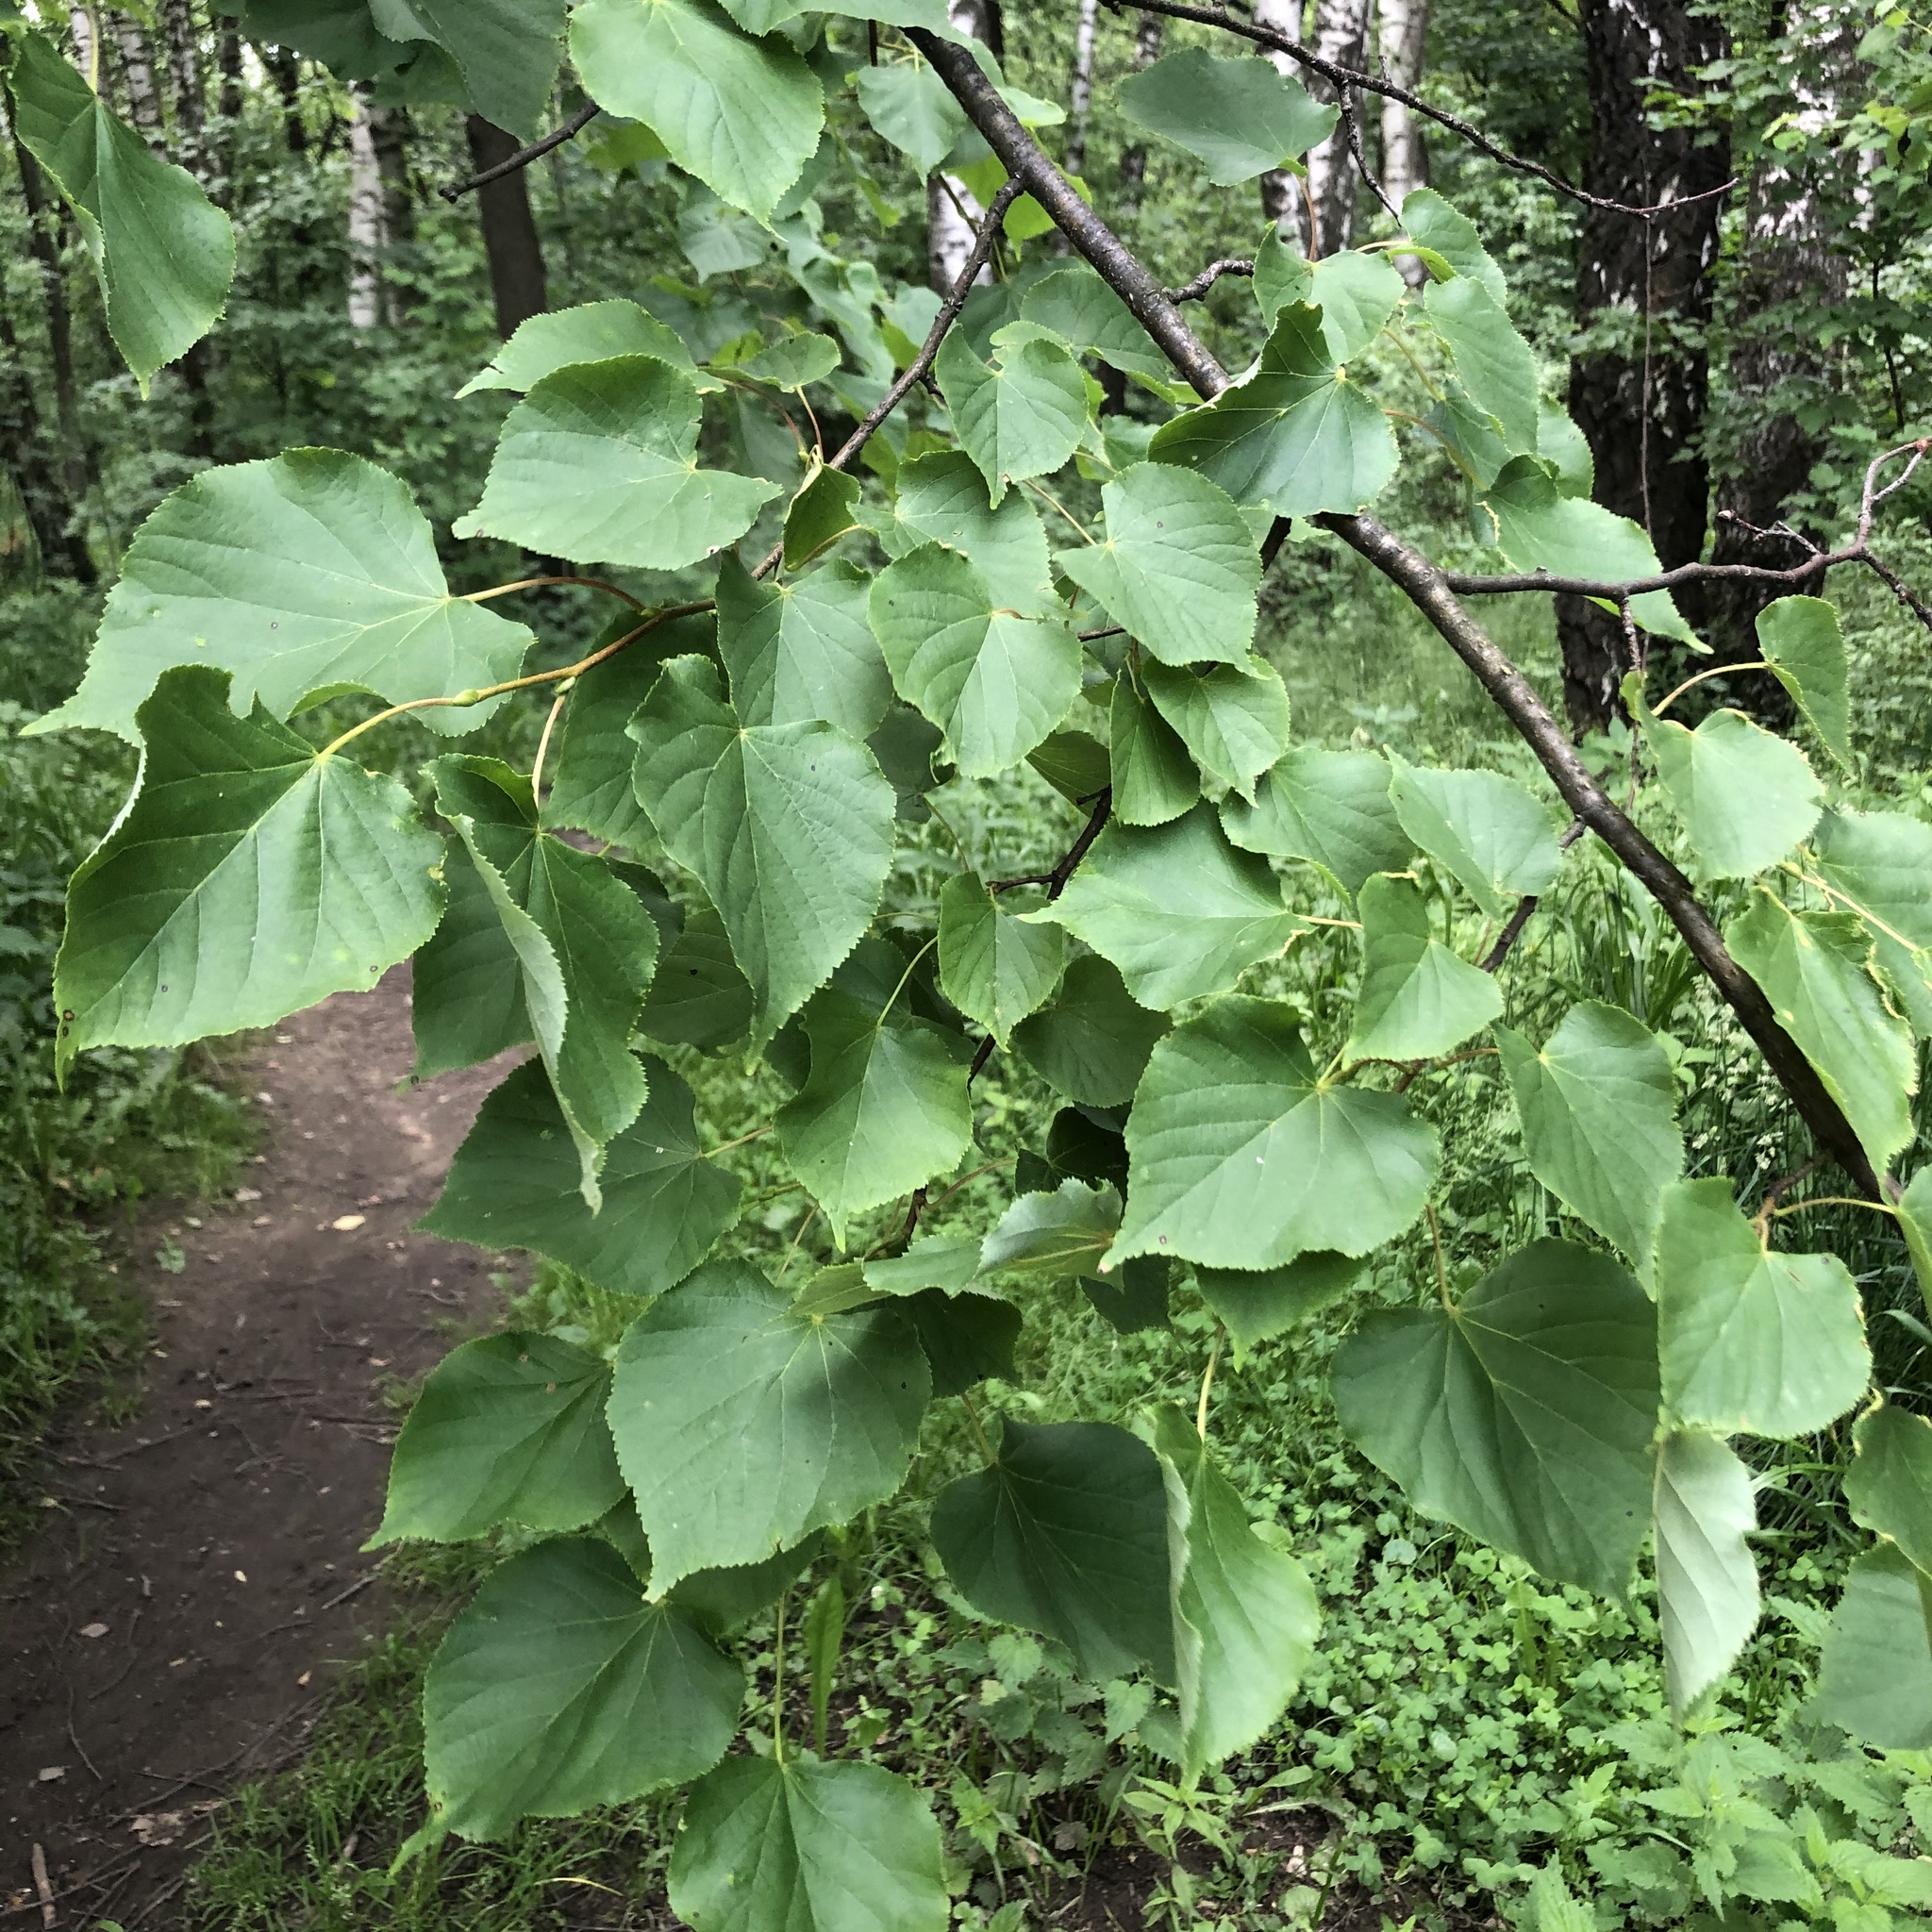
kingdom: Plantae
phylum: Tracheophyta
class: Magnoliopsida
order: Malvales
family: Malvaceae
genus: Tilia
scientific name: Tilia cordata
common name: Small-leaved lime
